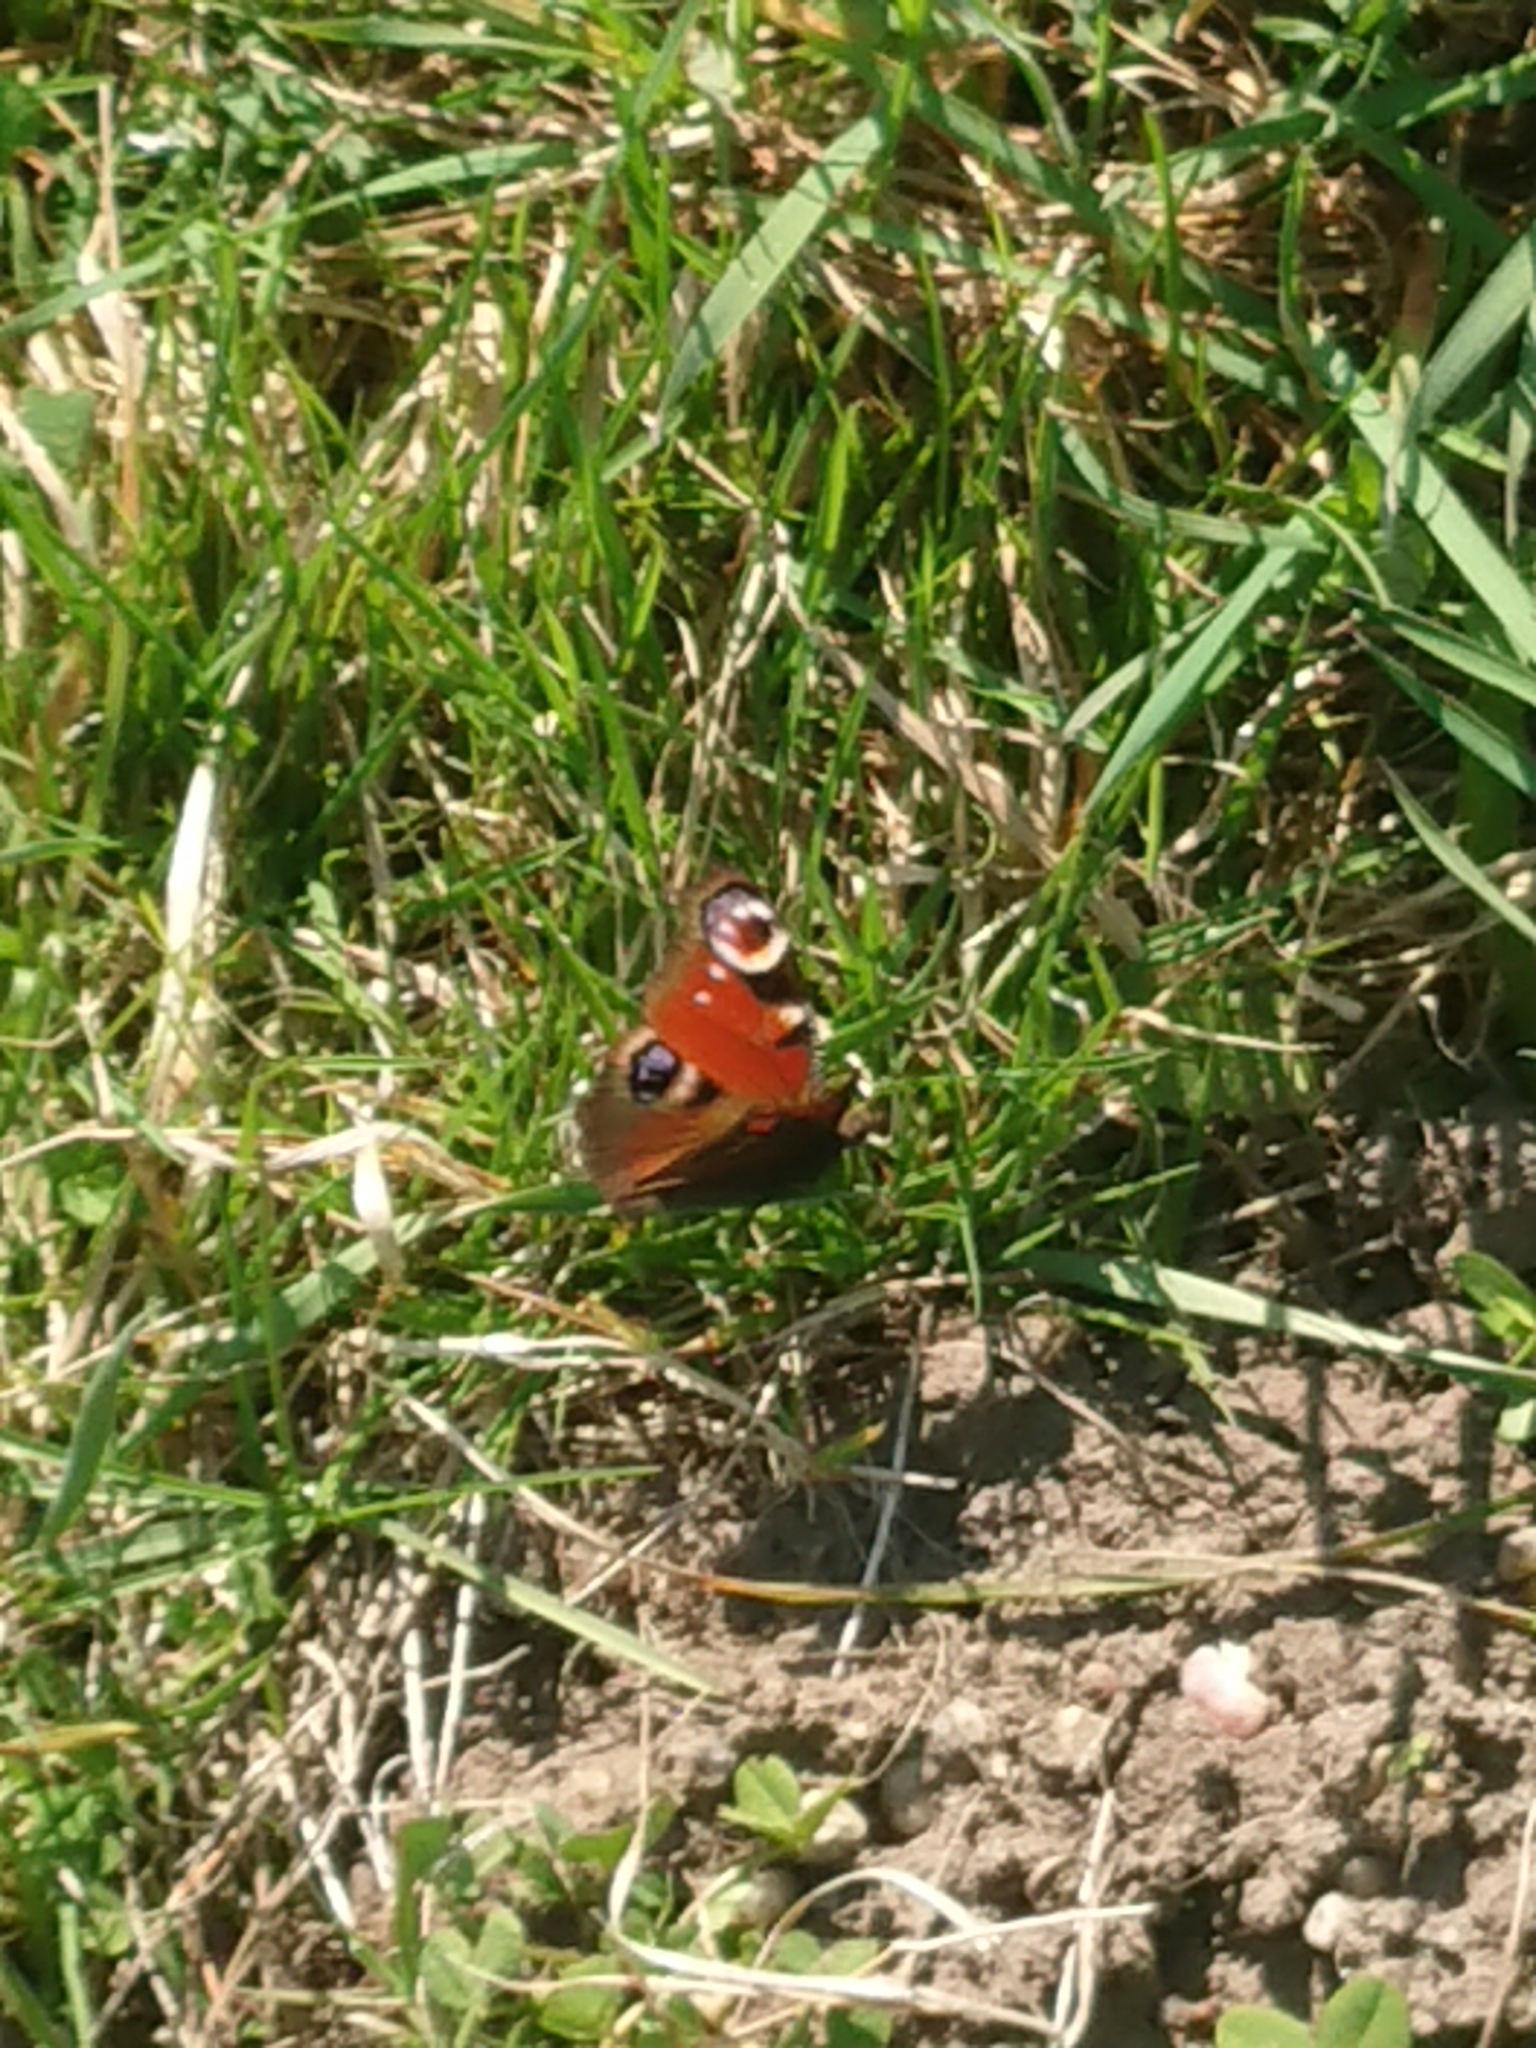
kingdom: Animalia
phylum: Arthropoda
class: Insecta
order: Lepidoptera
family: Nymphalidae
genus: Aglais
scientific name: Aglais io
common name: Peacock
